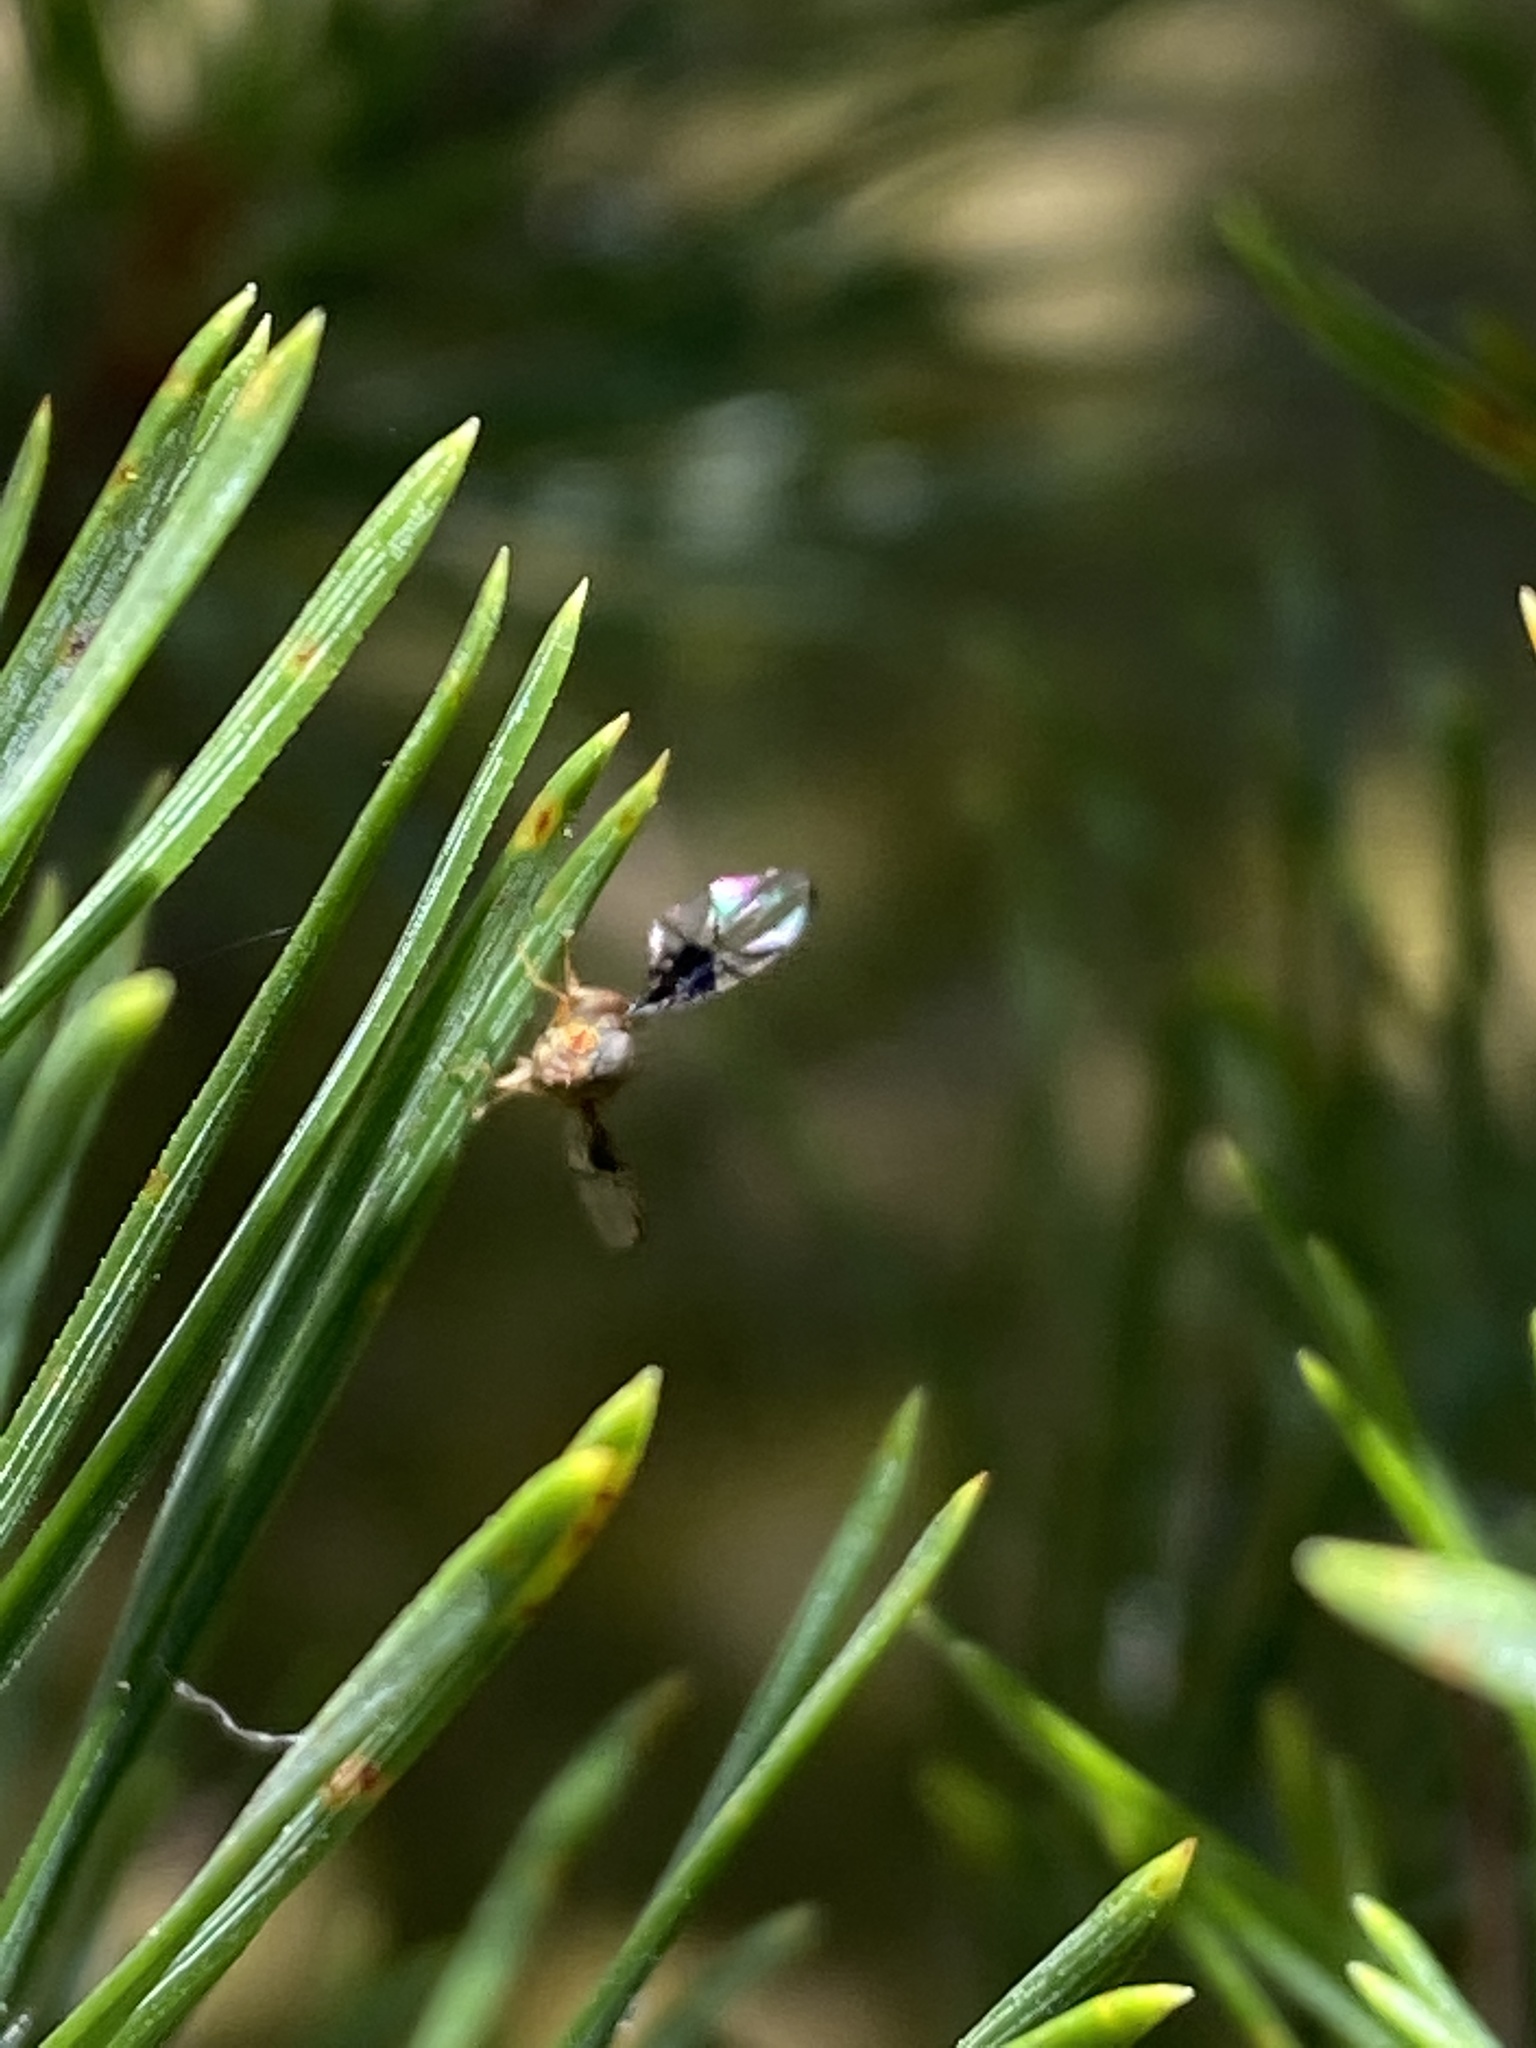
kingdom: Animalia
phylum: Arthropoda
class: Insecta
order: Diptera
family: Tephritidae
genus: Anomoia
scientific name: Anomoia purmunda
